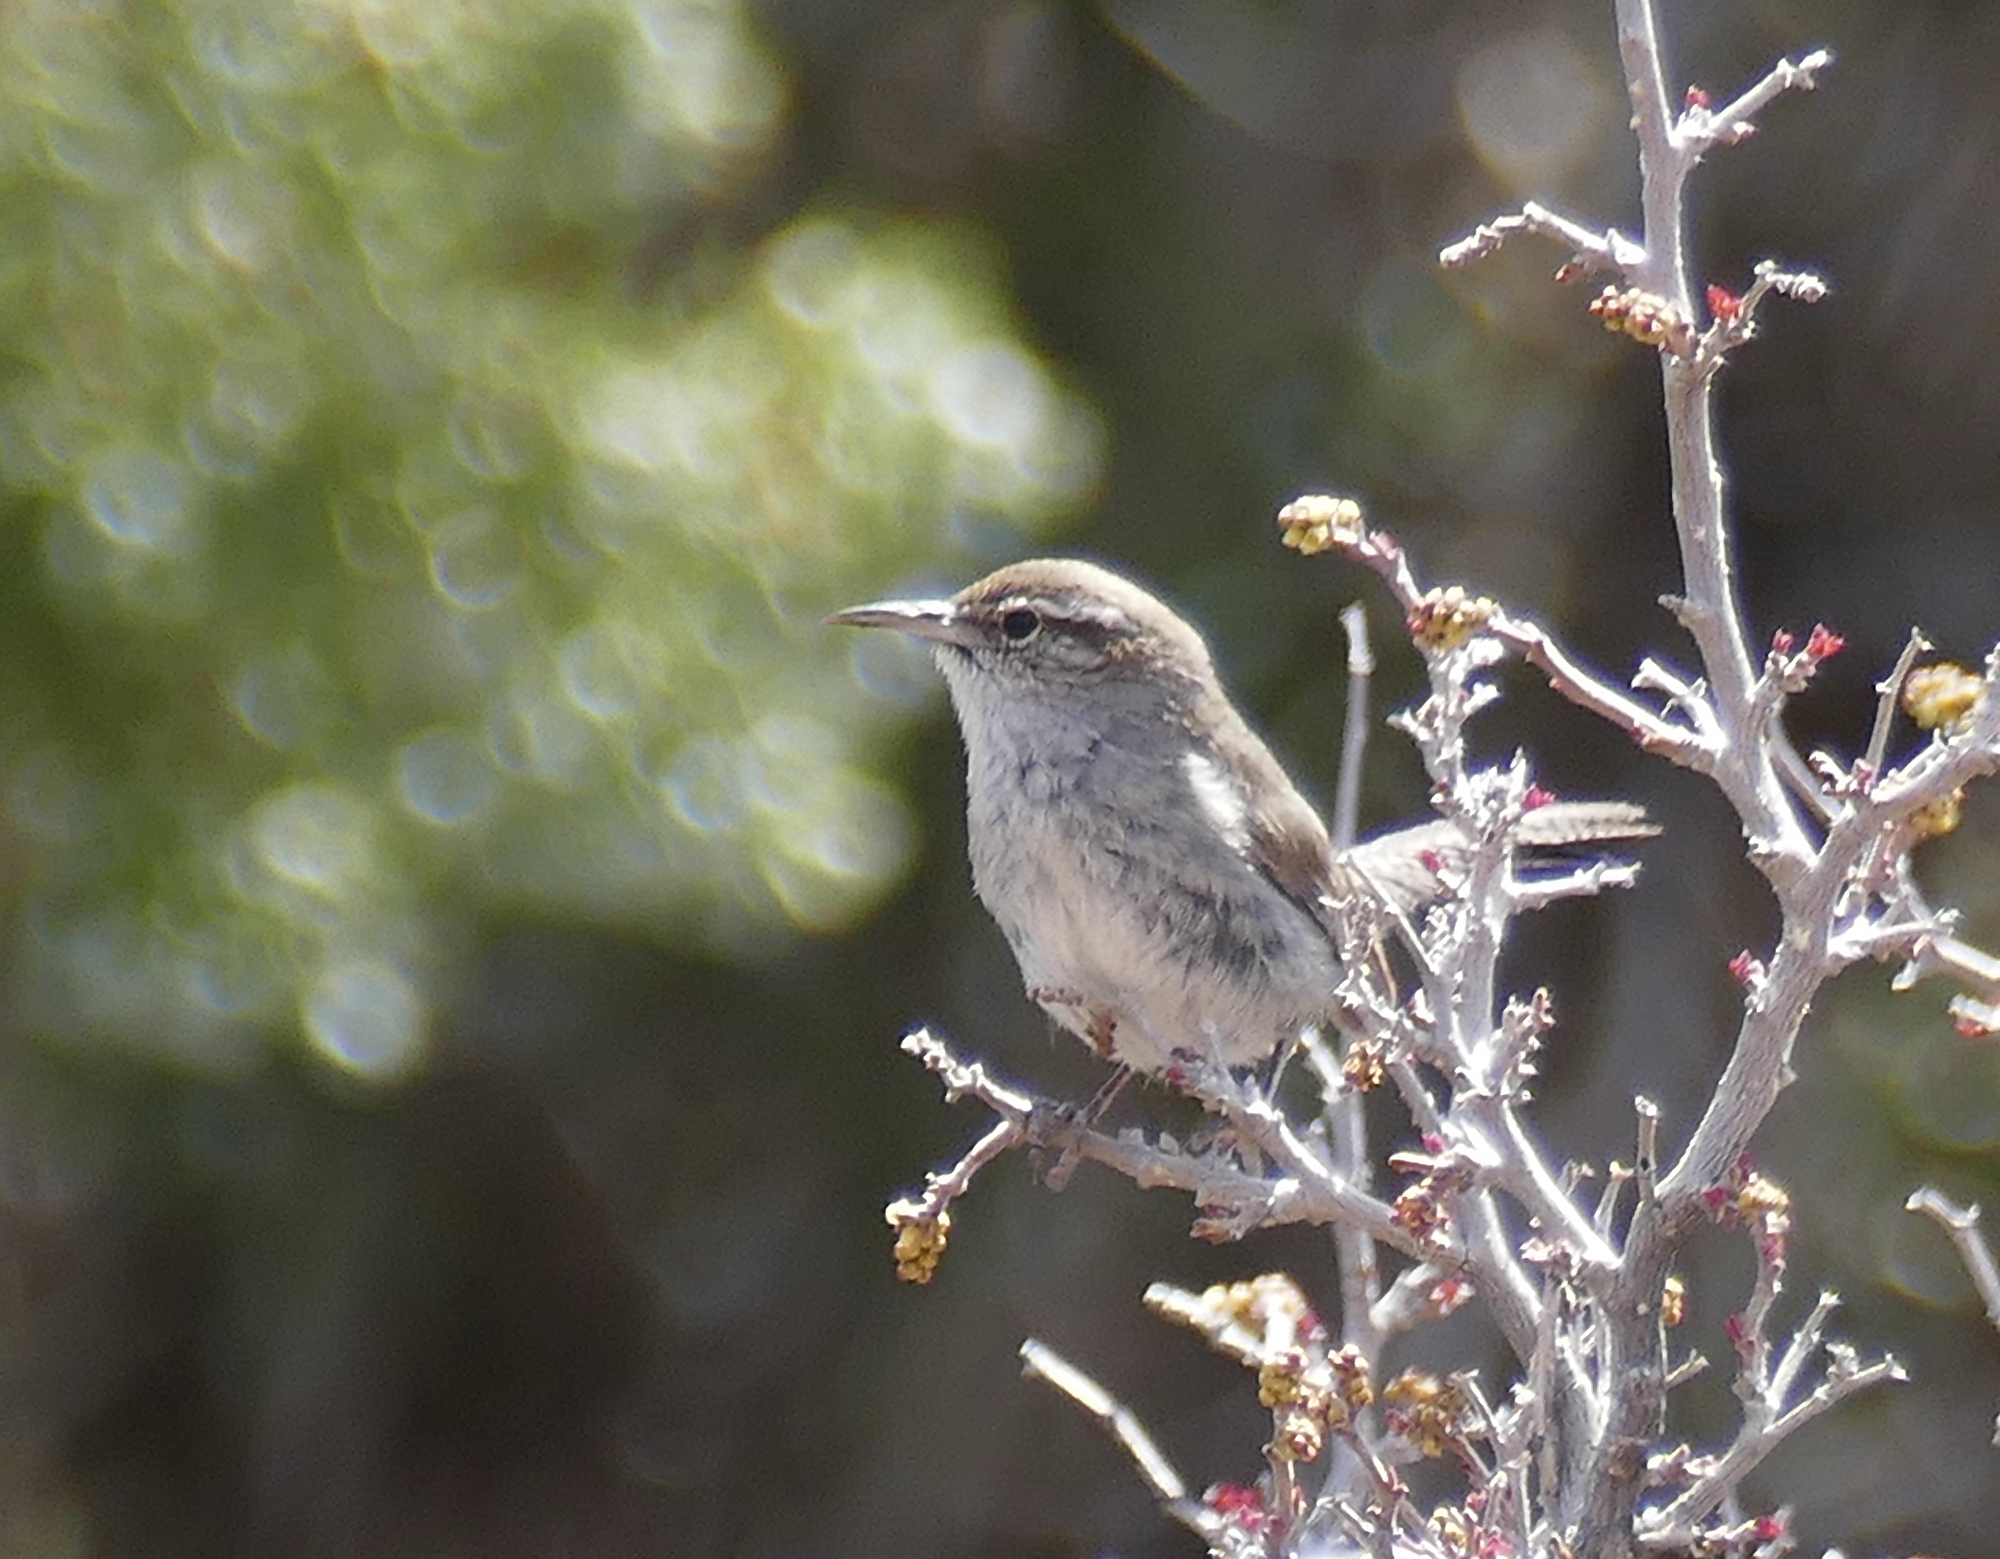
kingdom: Animalia
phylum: Chordata
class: Aves
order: Passeriformes
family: Troglodytidae
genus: Thryomanes
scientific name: Thryomanes bewickii
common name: Bewick's wren
